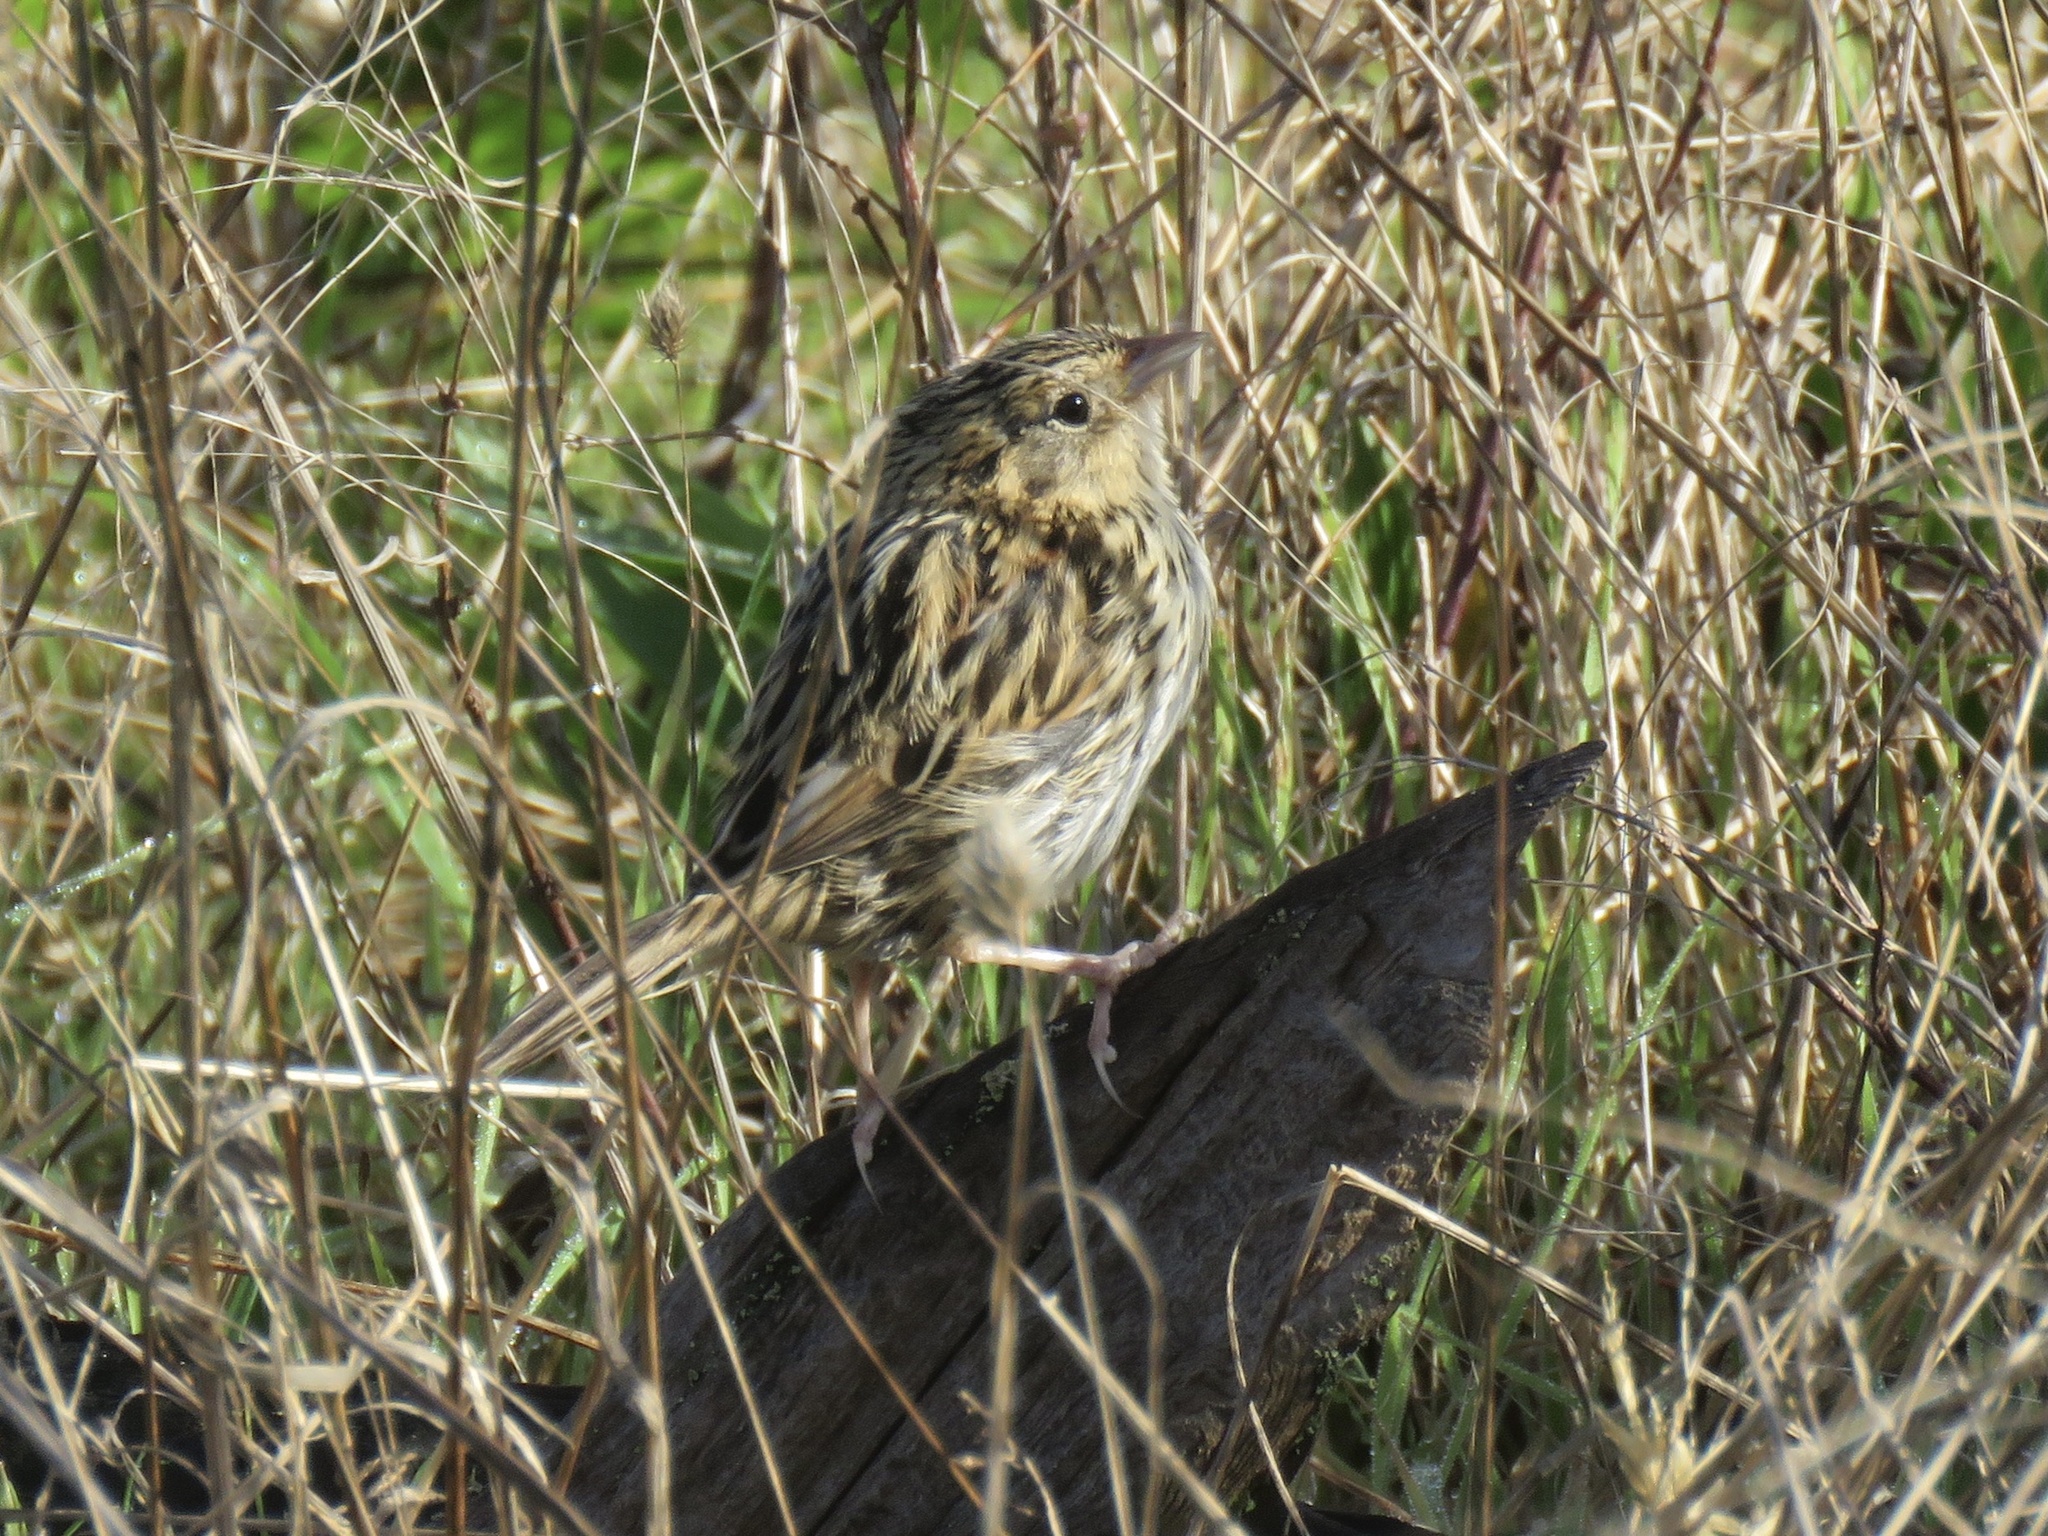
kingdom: Animalia
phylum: Chordata
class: Aves
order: Passeriformes
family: Passerellidae
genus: Ammospiza
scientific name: Ammospiza leconteii
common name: Le conte's sparrow
